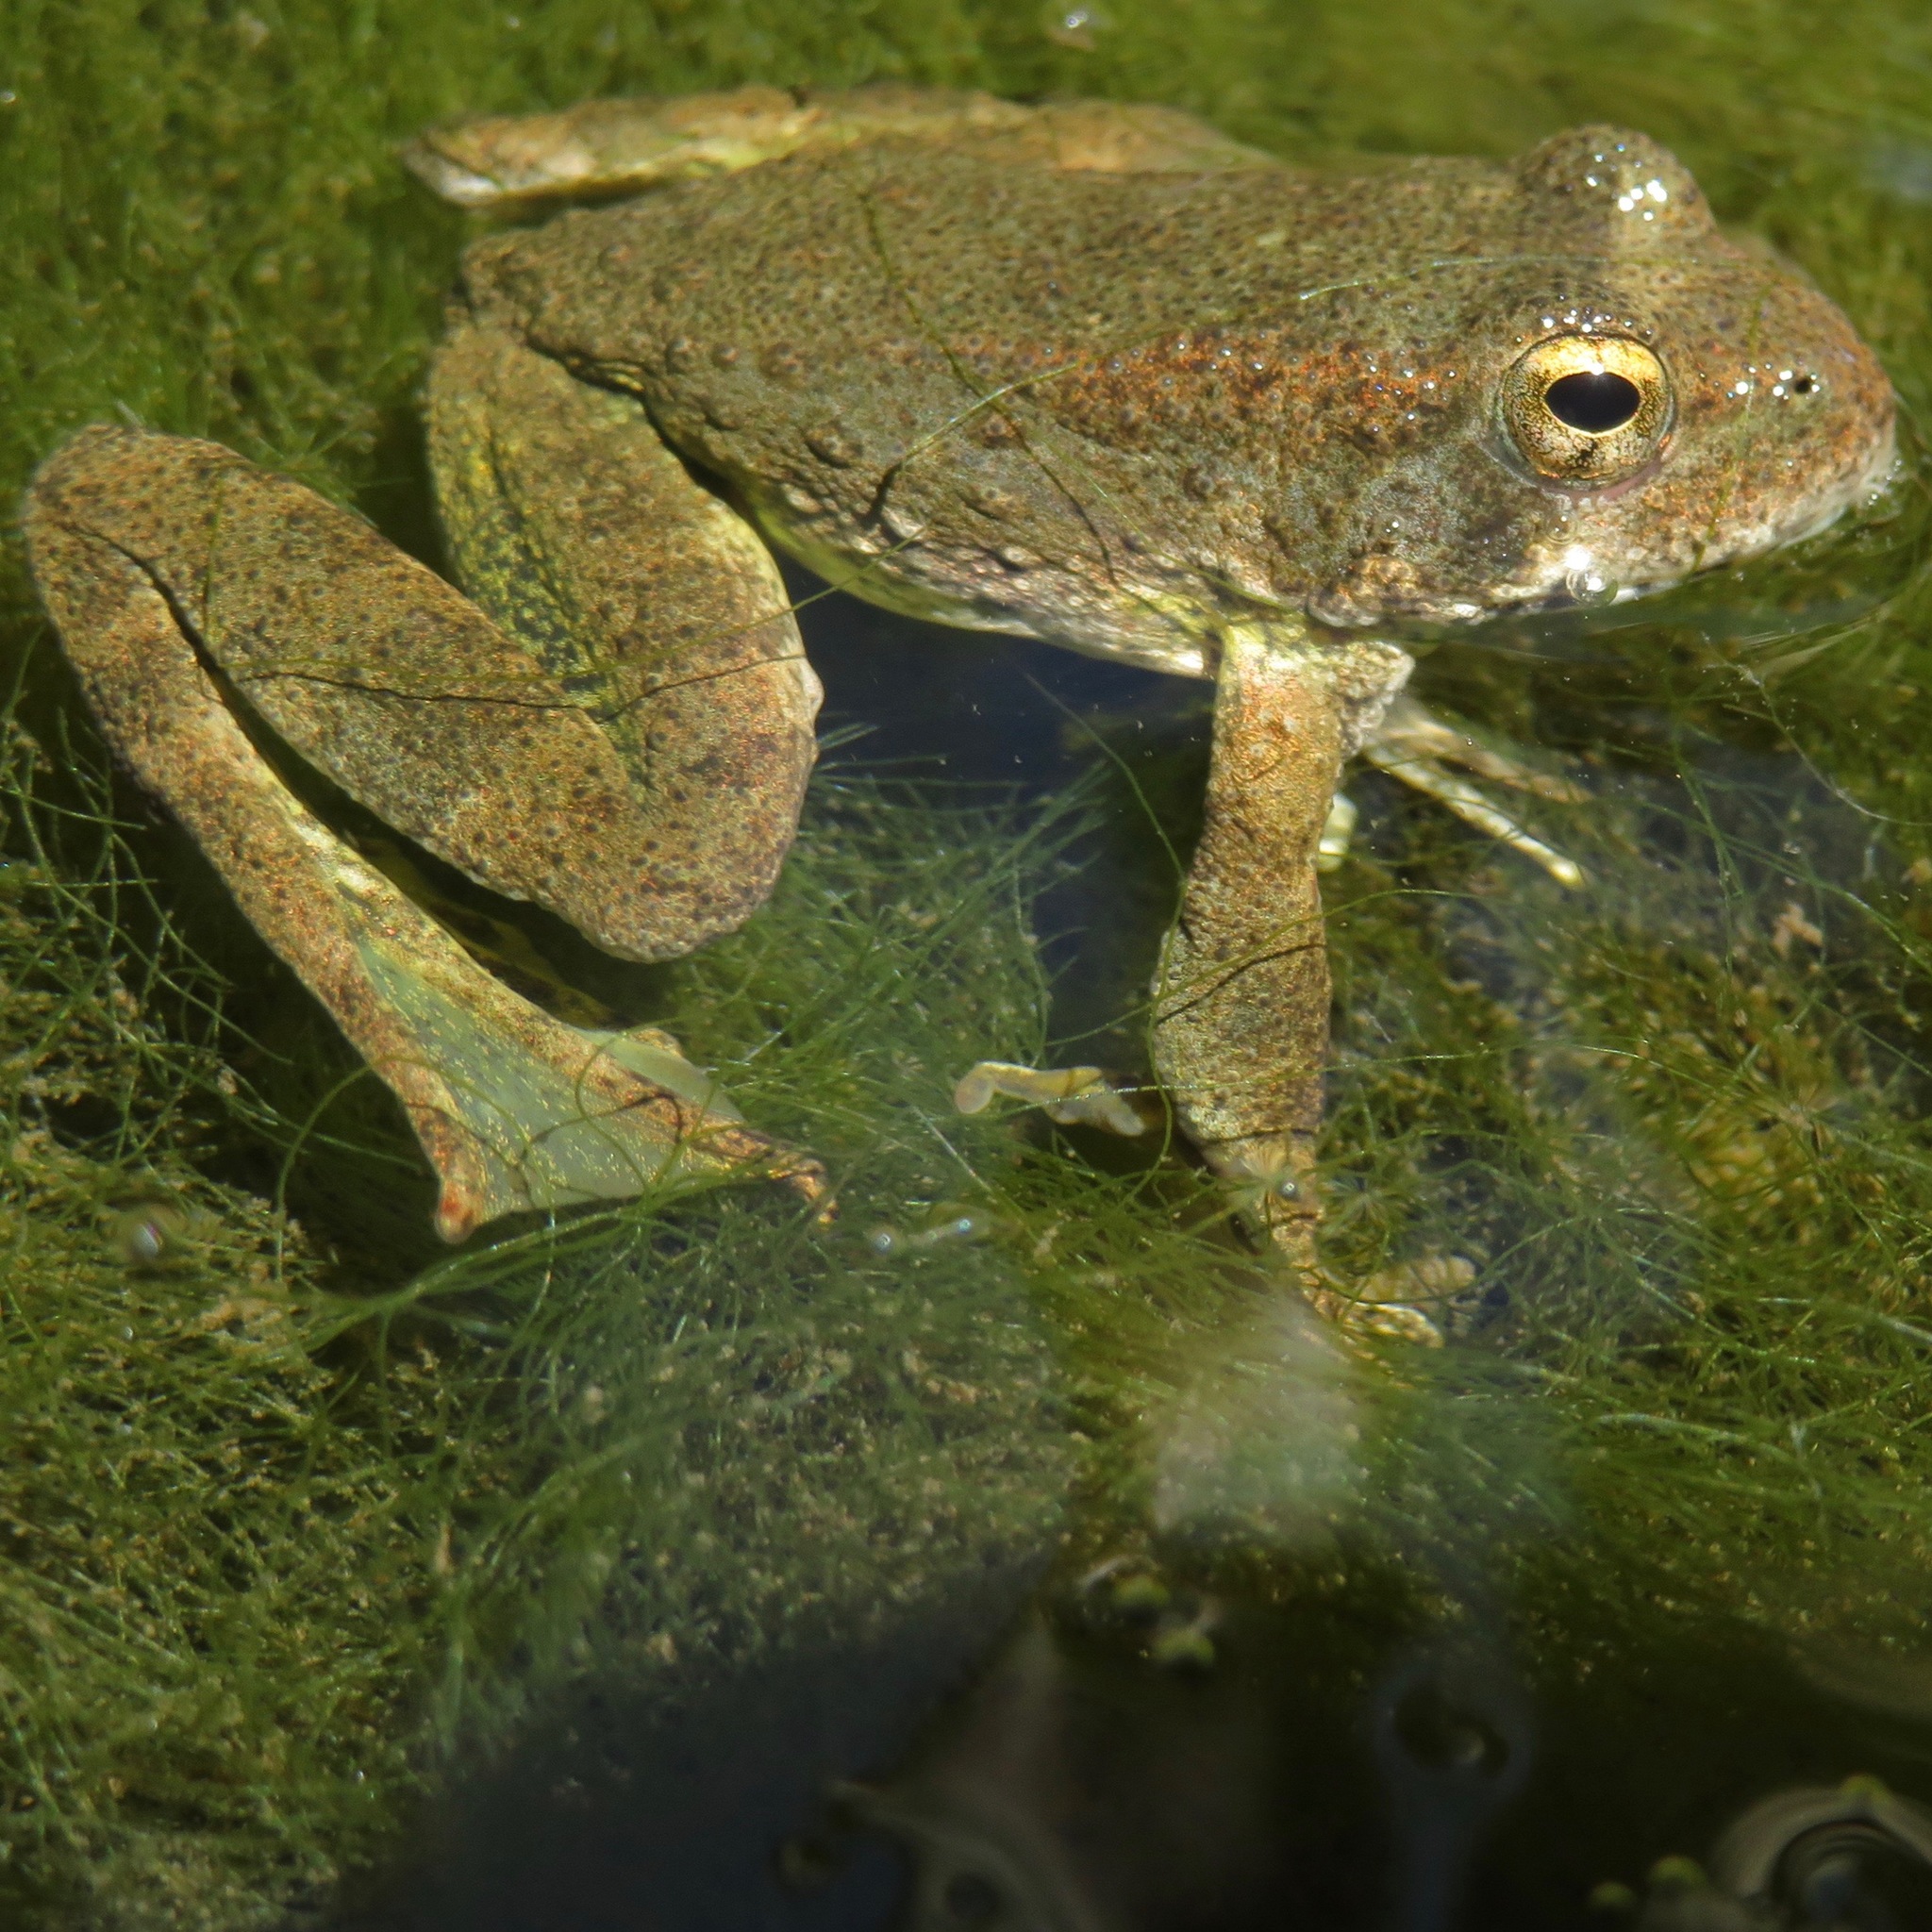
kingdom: Animalia
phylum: Chordata
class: Amphibia
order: Anura
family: Ranidae
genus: Rana
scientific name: Rana boylii
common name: Foothill yellow-legged frog
